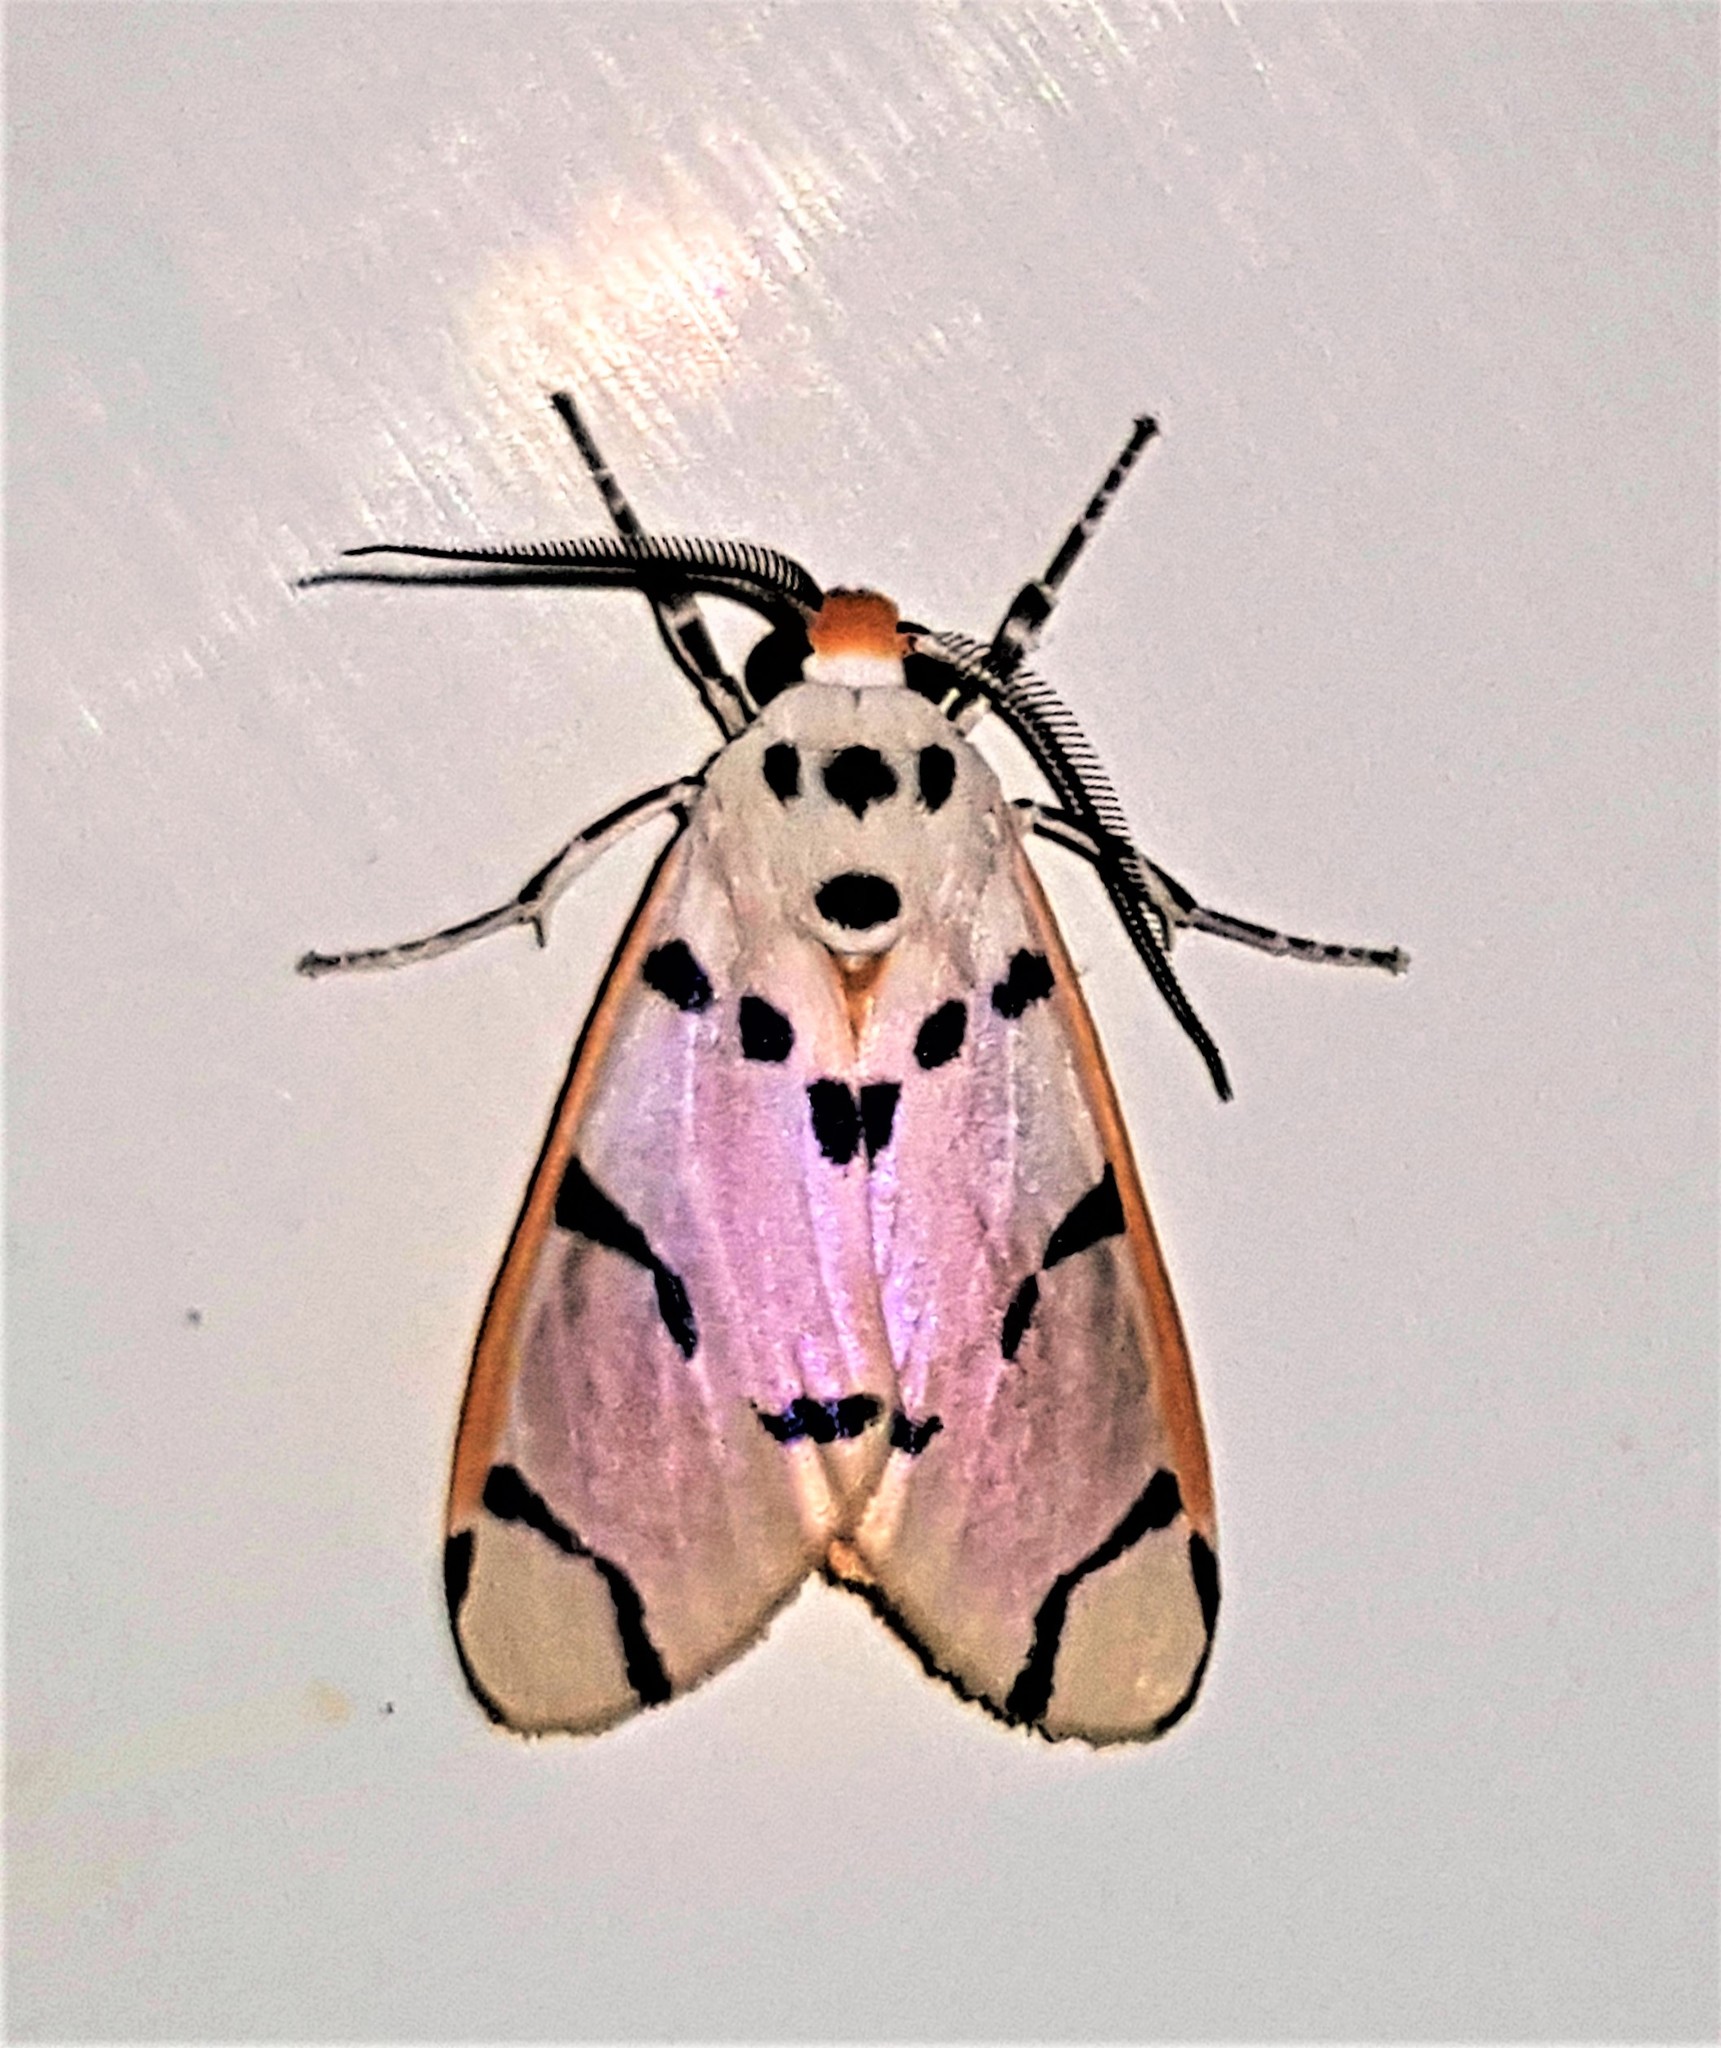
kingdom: Animalia
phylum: Arthropoda
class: Insecta
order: Lepidoptera
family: Erebidae
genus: Aphyle
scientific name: Aphyle margaritaceus
